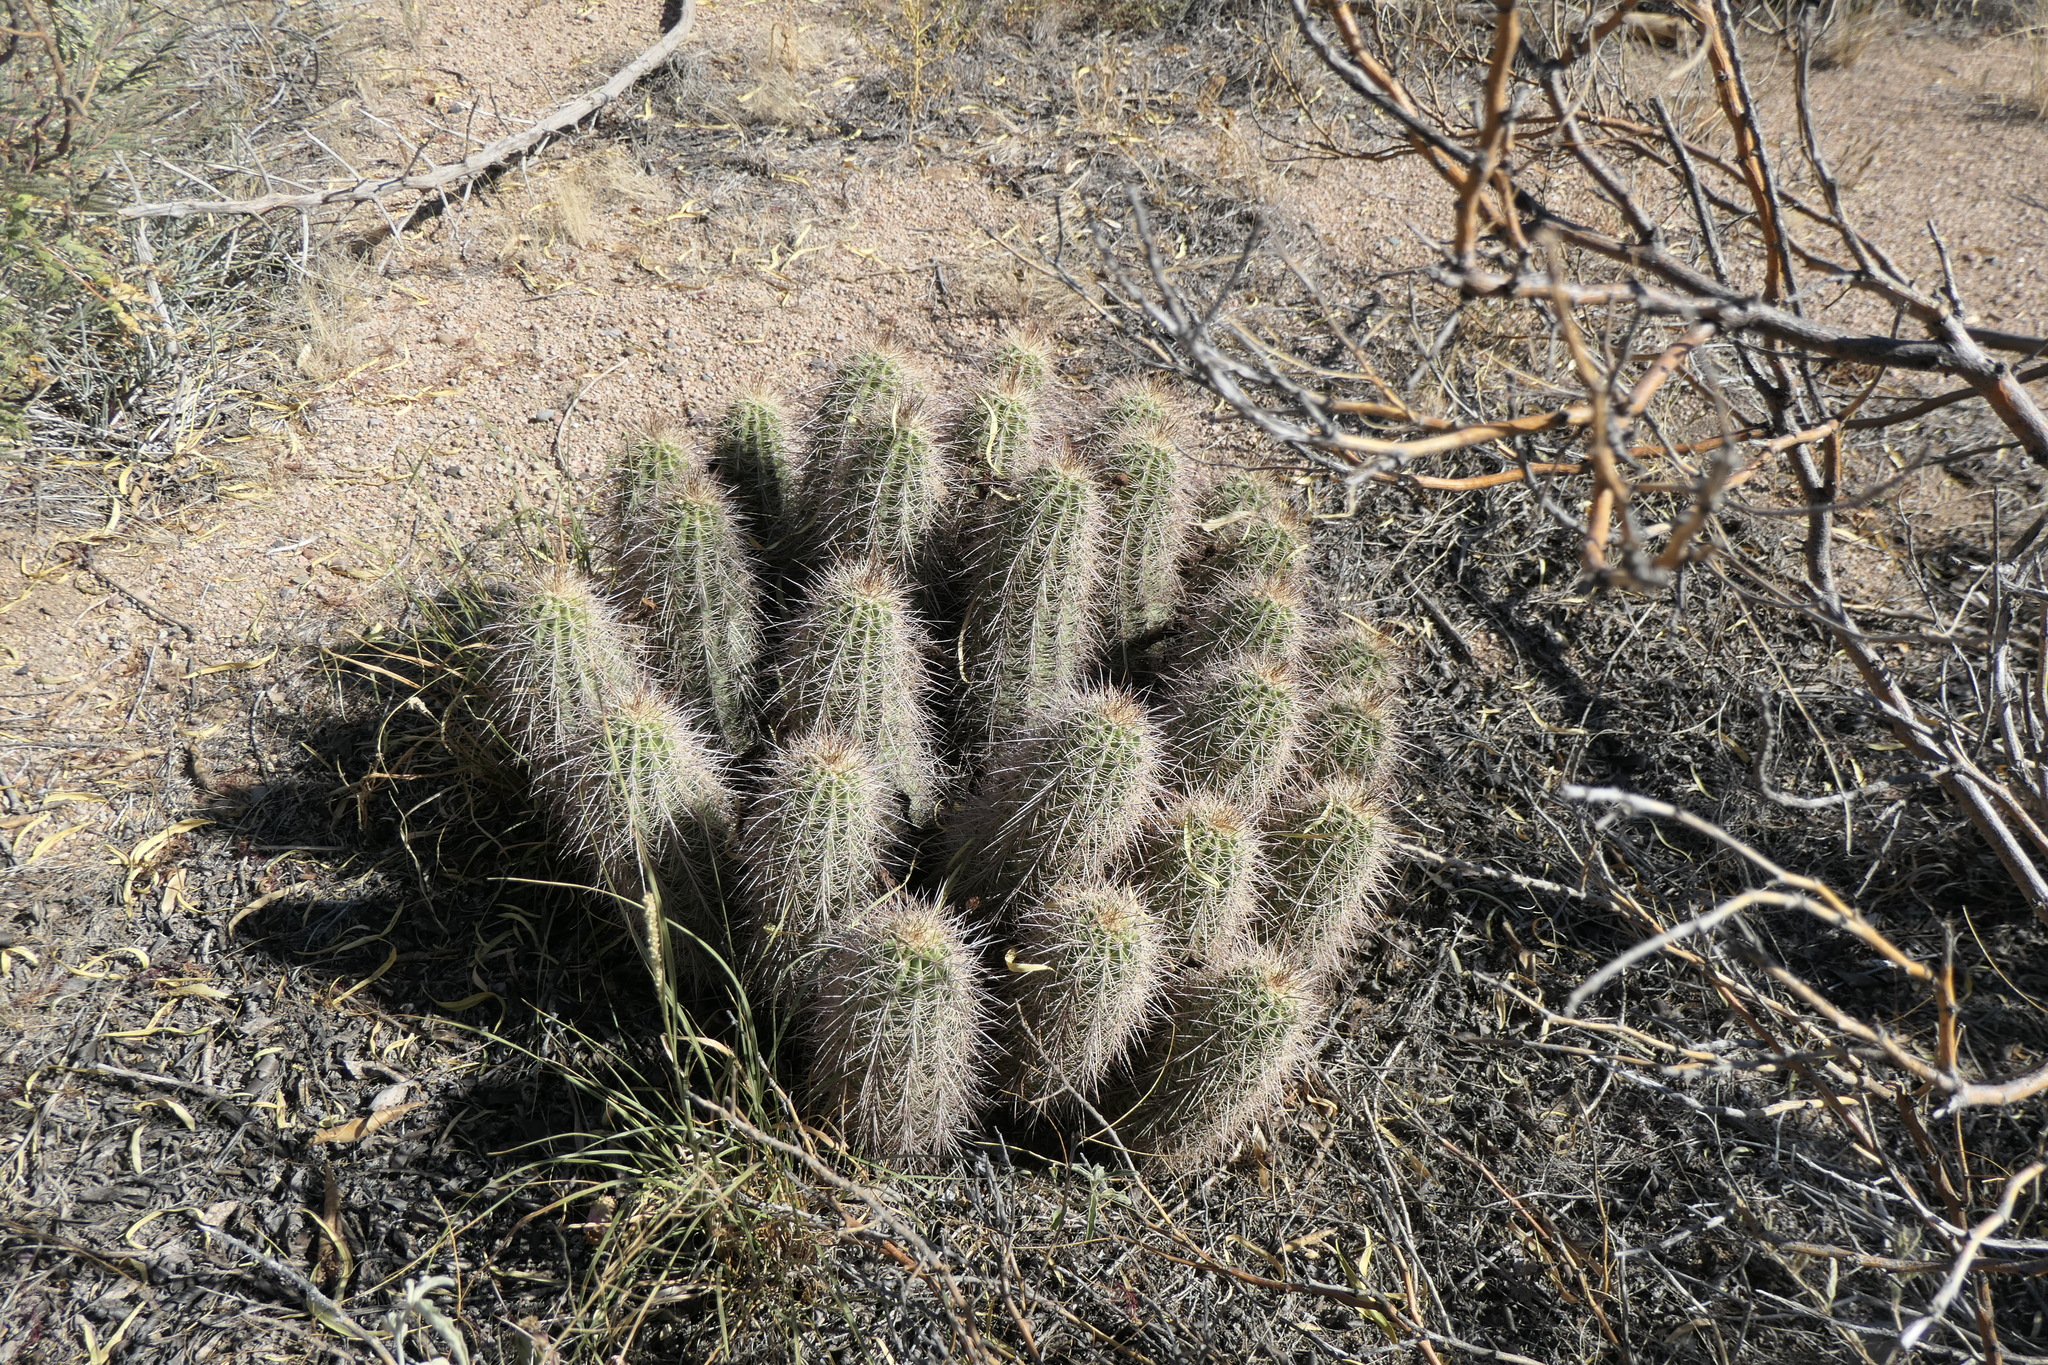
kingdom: Plantae
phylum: Tracheophyta
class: Magnoliopsida
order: Caryophyllales
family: Cactaceae
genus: Echinocereus
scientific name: Echinocereus coccineus
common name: Scarlet hedgehog cactus
